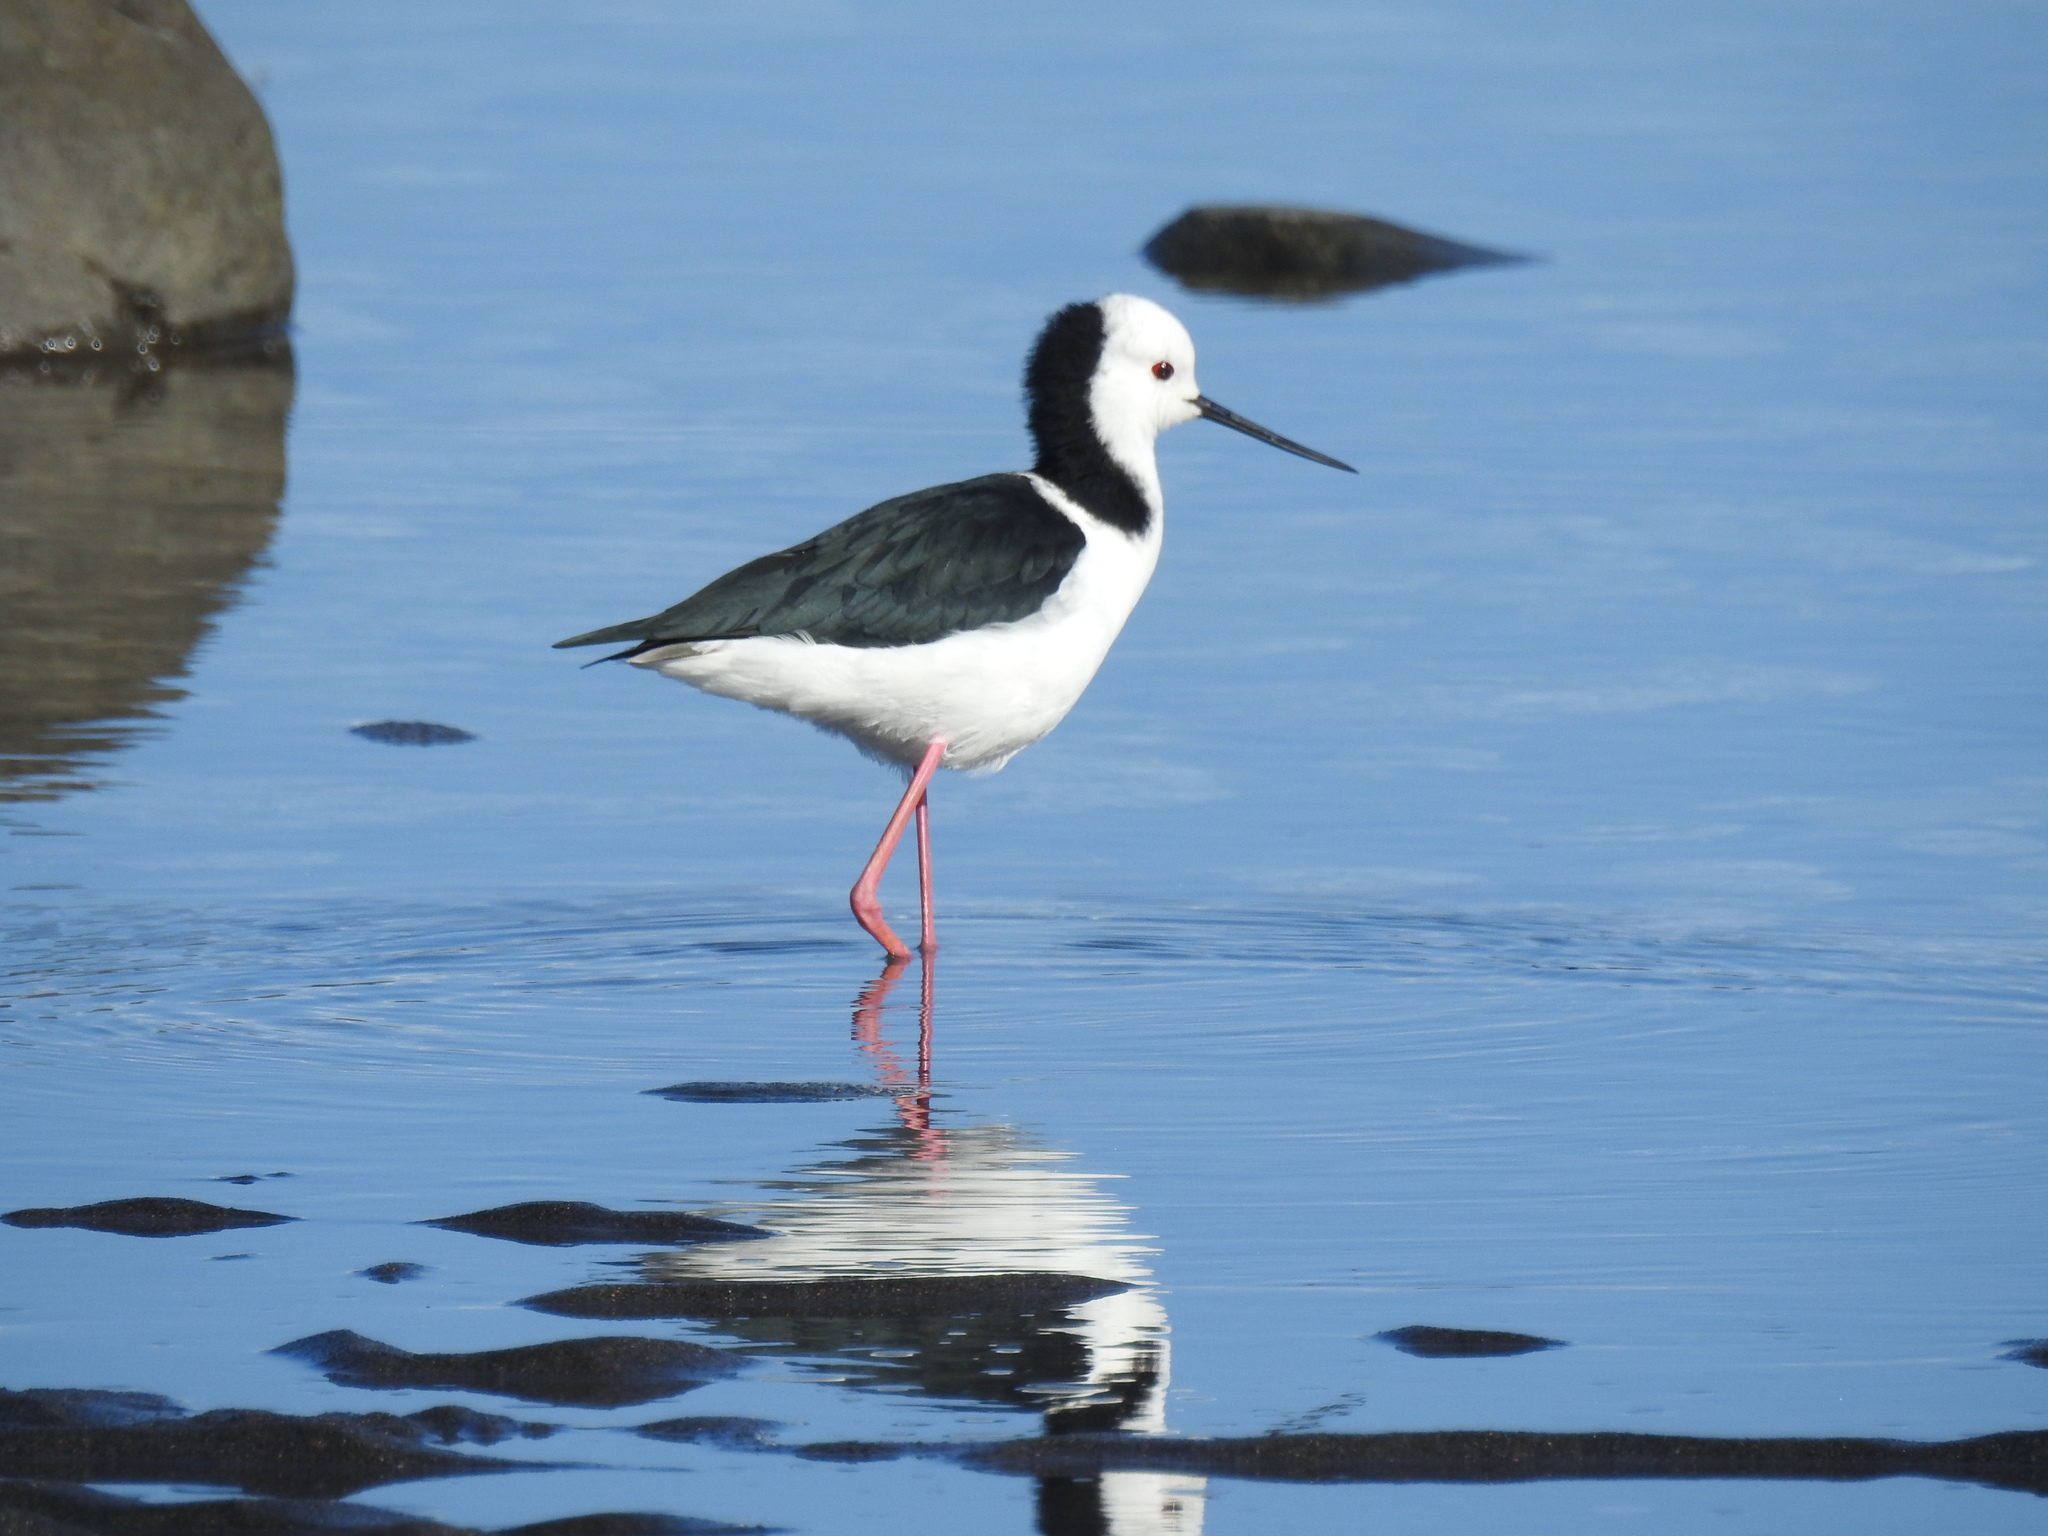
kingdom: Animalia
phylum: Chordata
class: Aves
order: Charadriiformes
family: Recurvirostridae
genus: Himantopus
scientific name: Himantopus leucocephalus
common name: White-headed stilt
